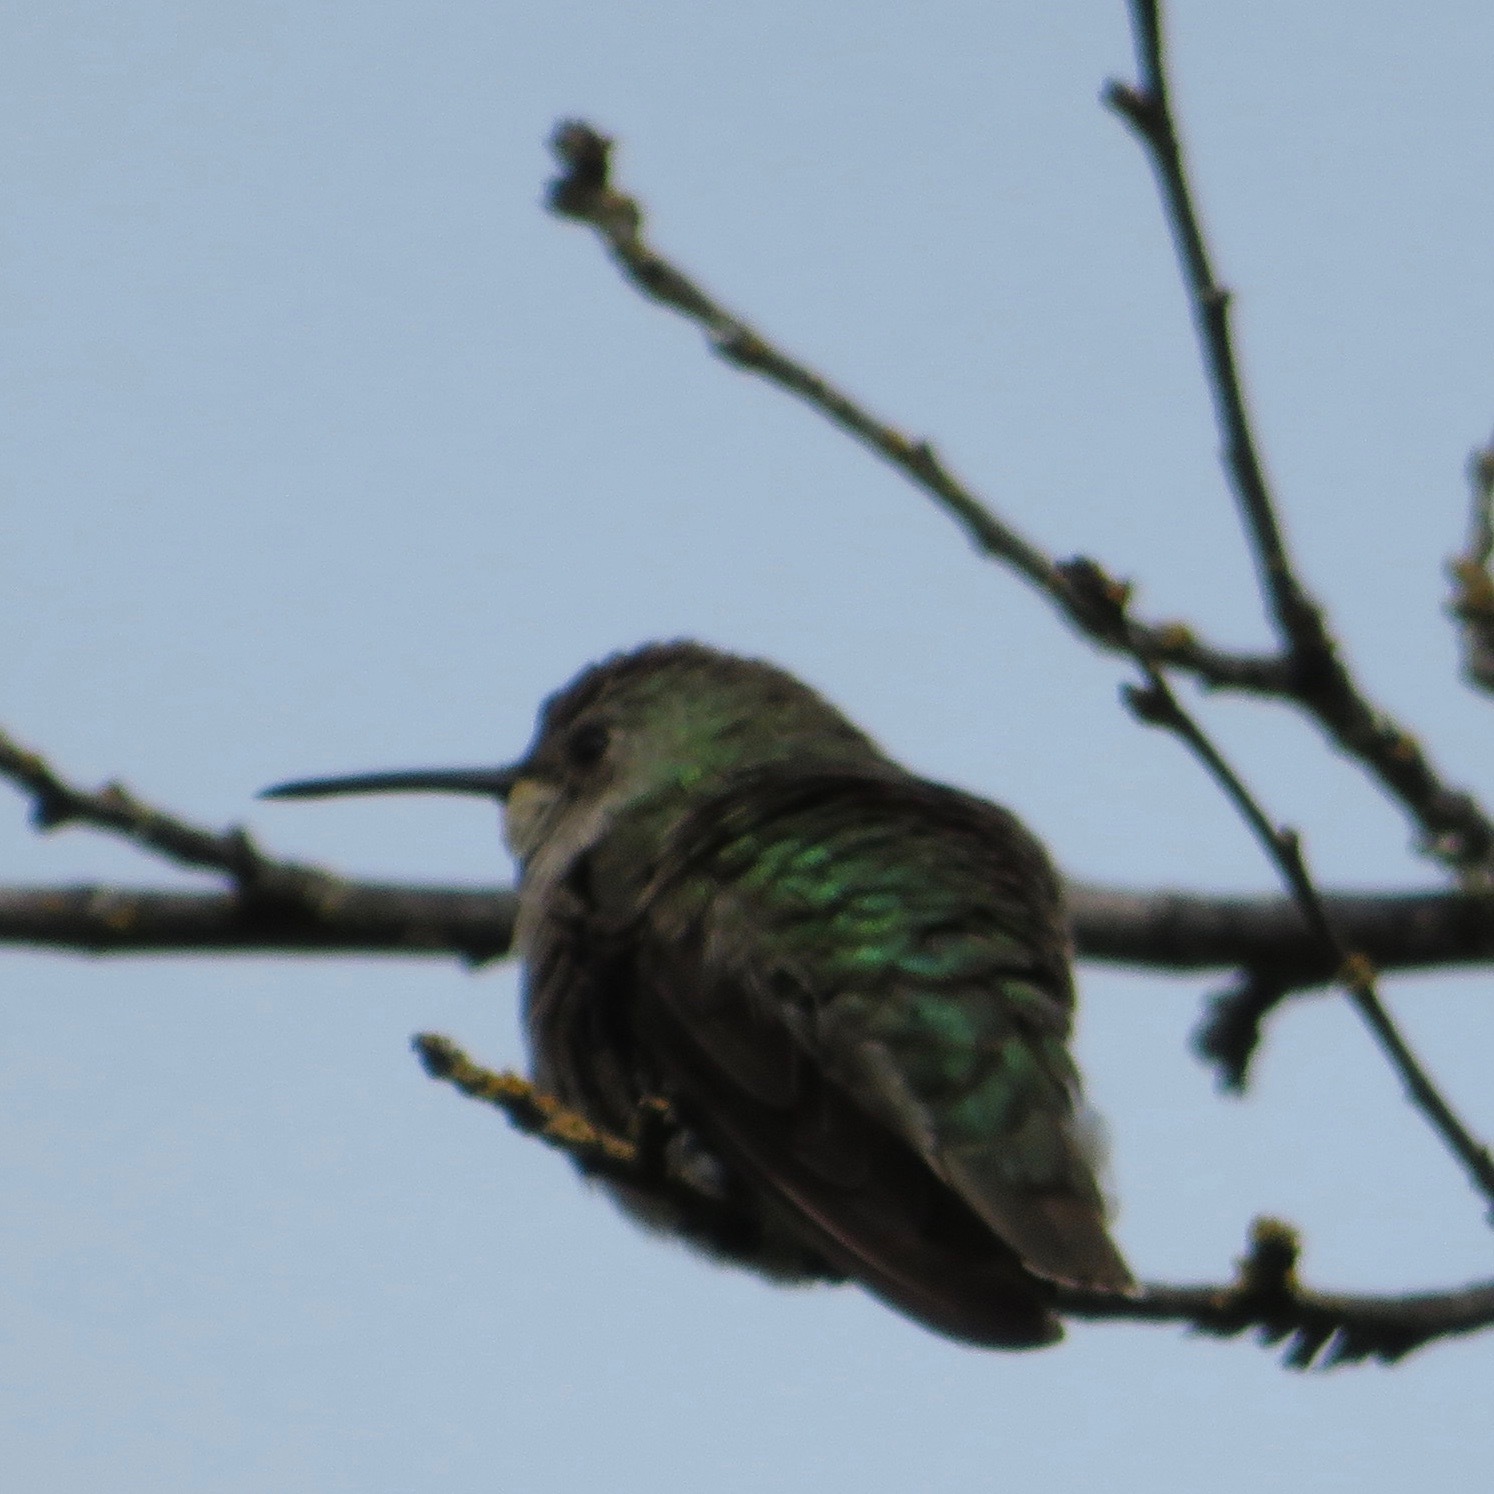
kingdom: Animalia
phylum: Chordata
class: Aves
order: Apodiformes
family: Trochilidae
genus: Calypte
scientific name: Calypte anna
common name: Anna's hummingbird
